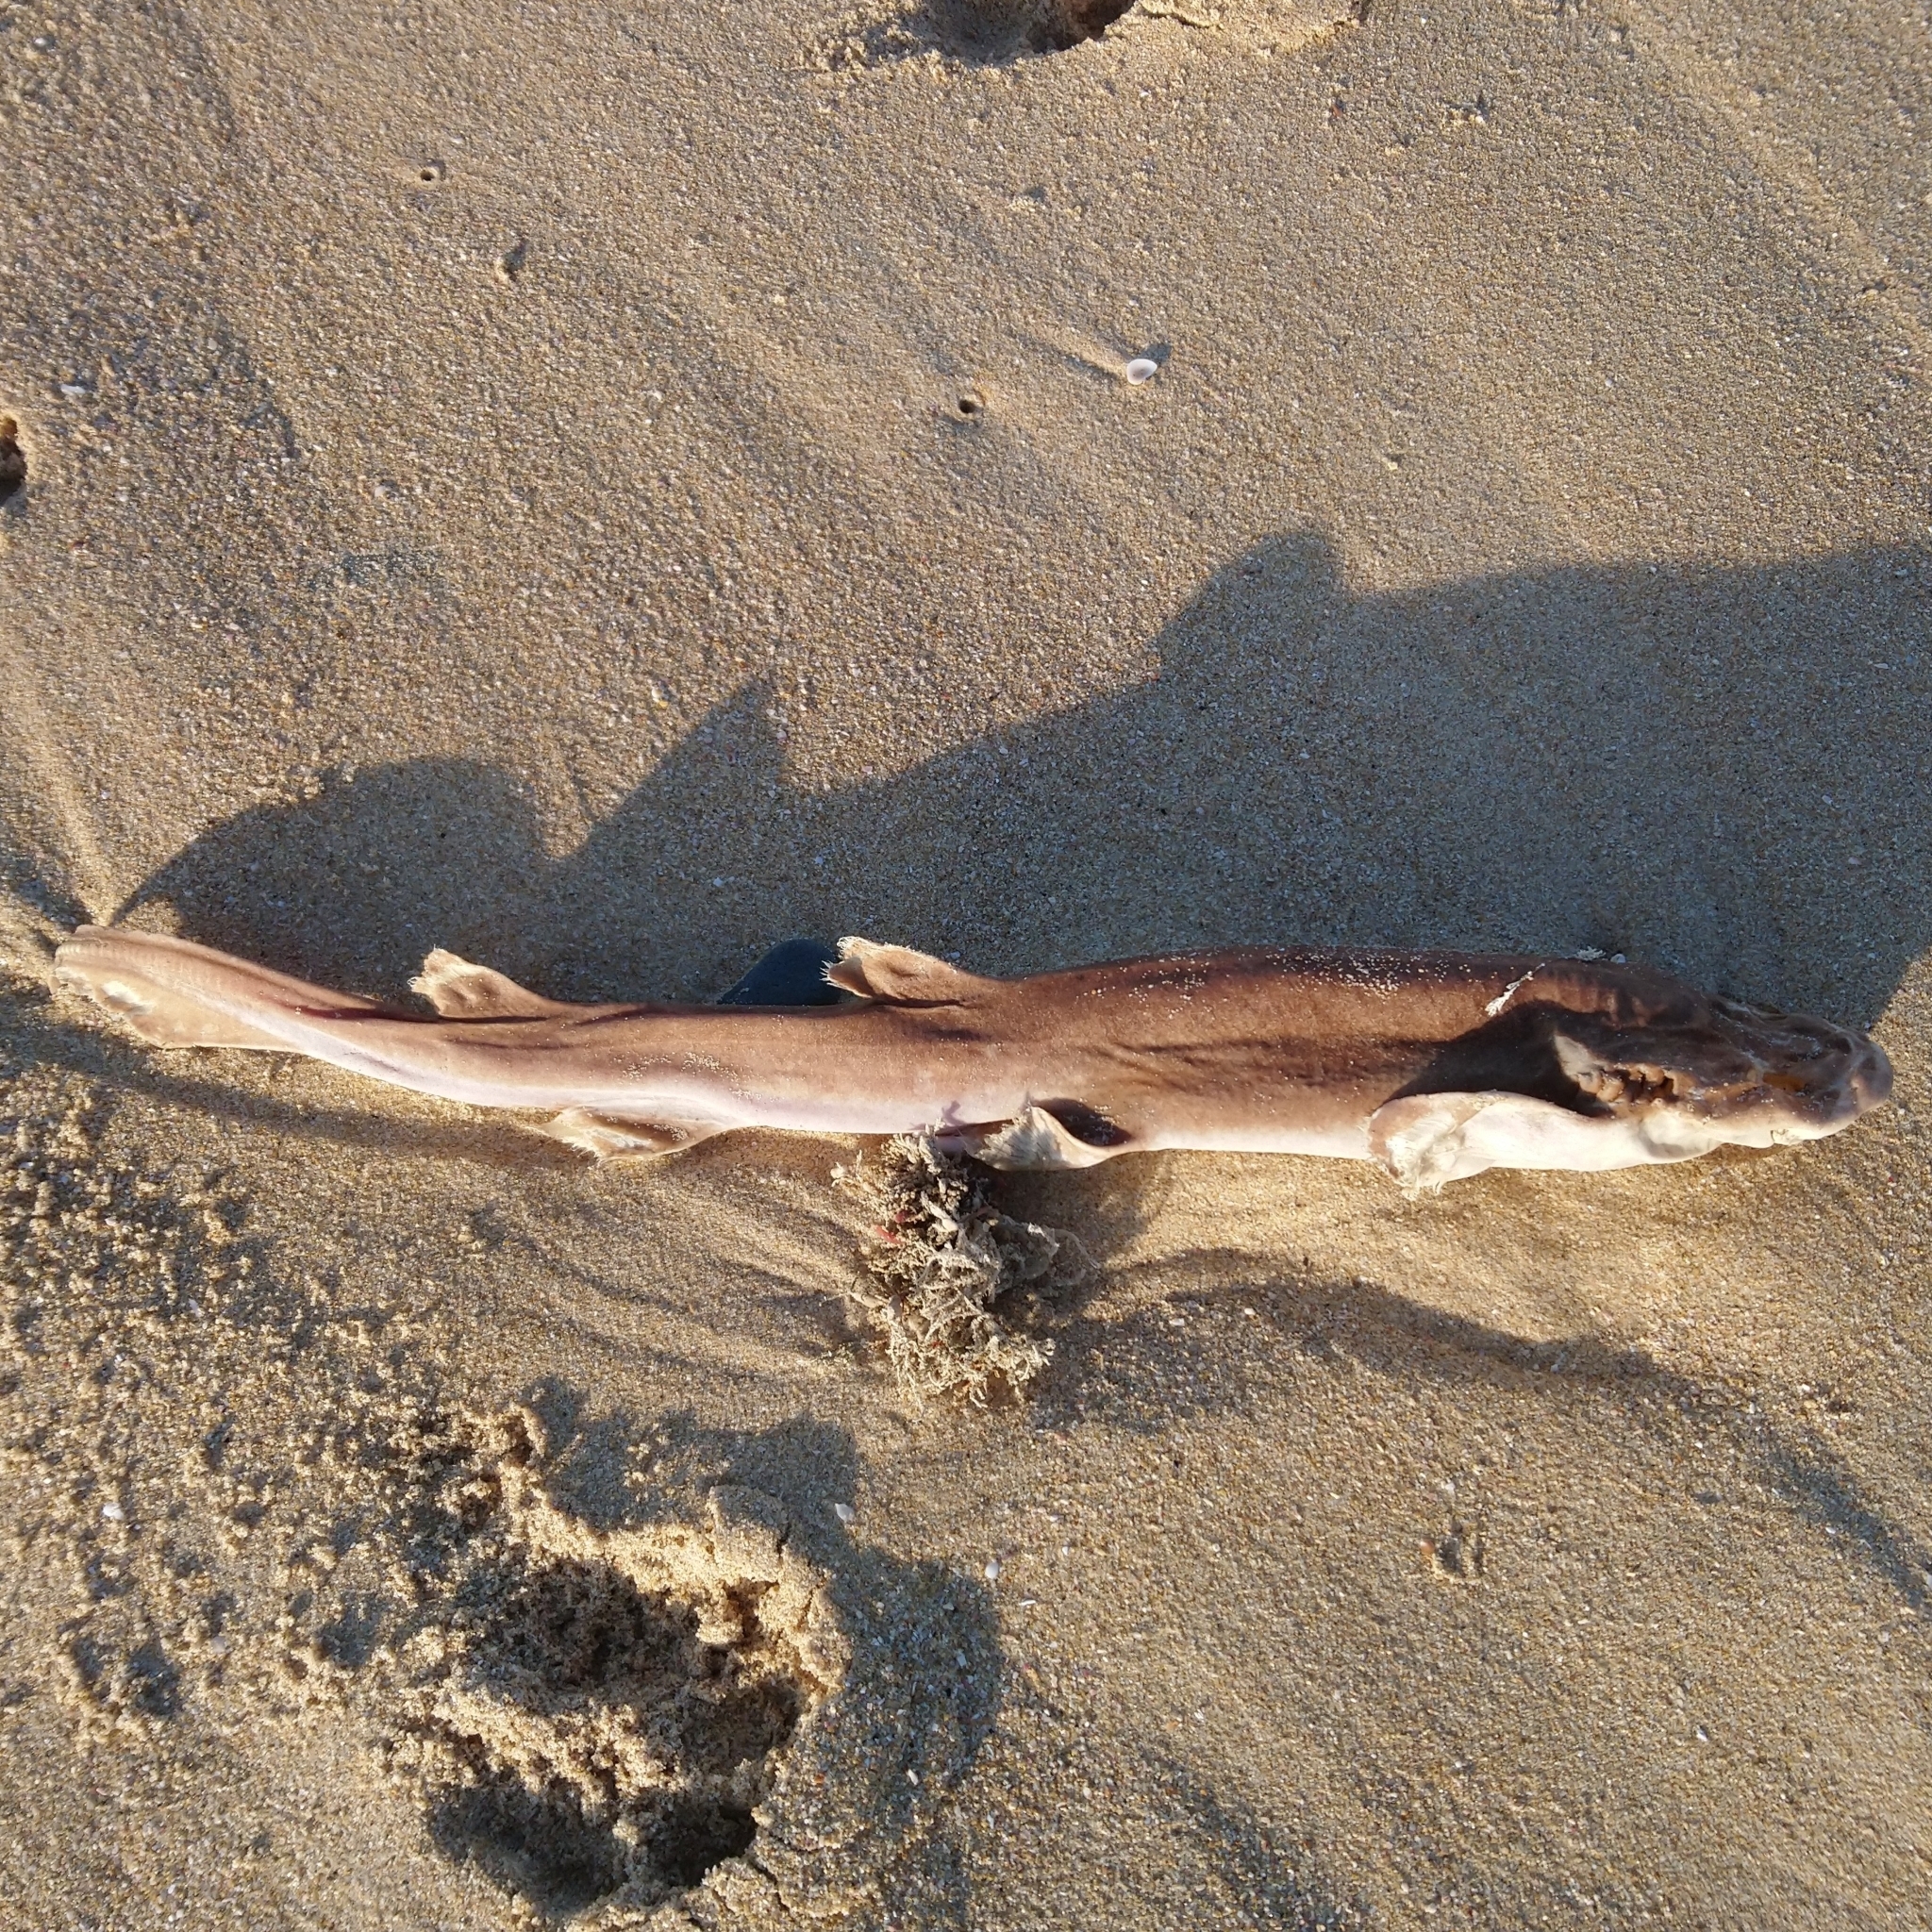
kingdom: Animalia
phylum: Chordata
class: Elasmobranchii
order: Carcharhiniformes
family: Scyliorhinidae
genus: Haploblepharus
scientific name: Haploblepharus fuscus
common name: Brown shyshark
